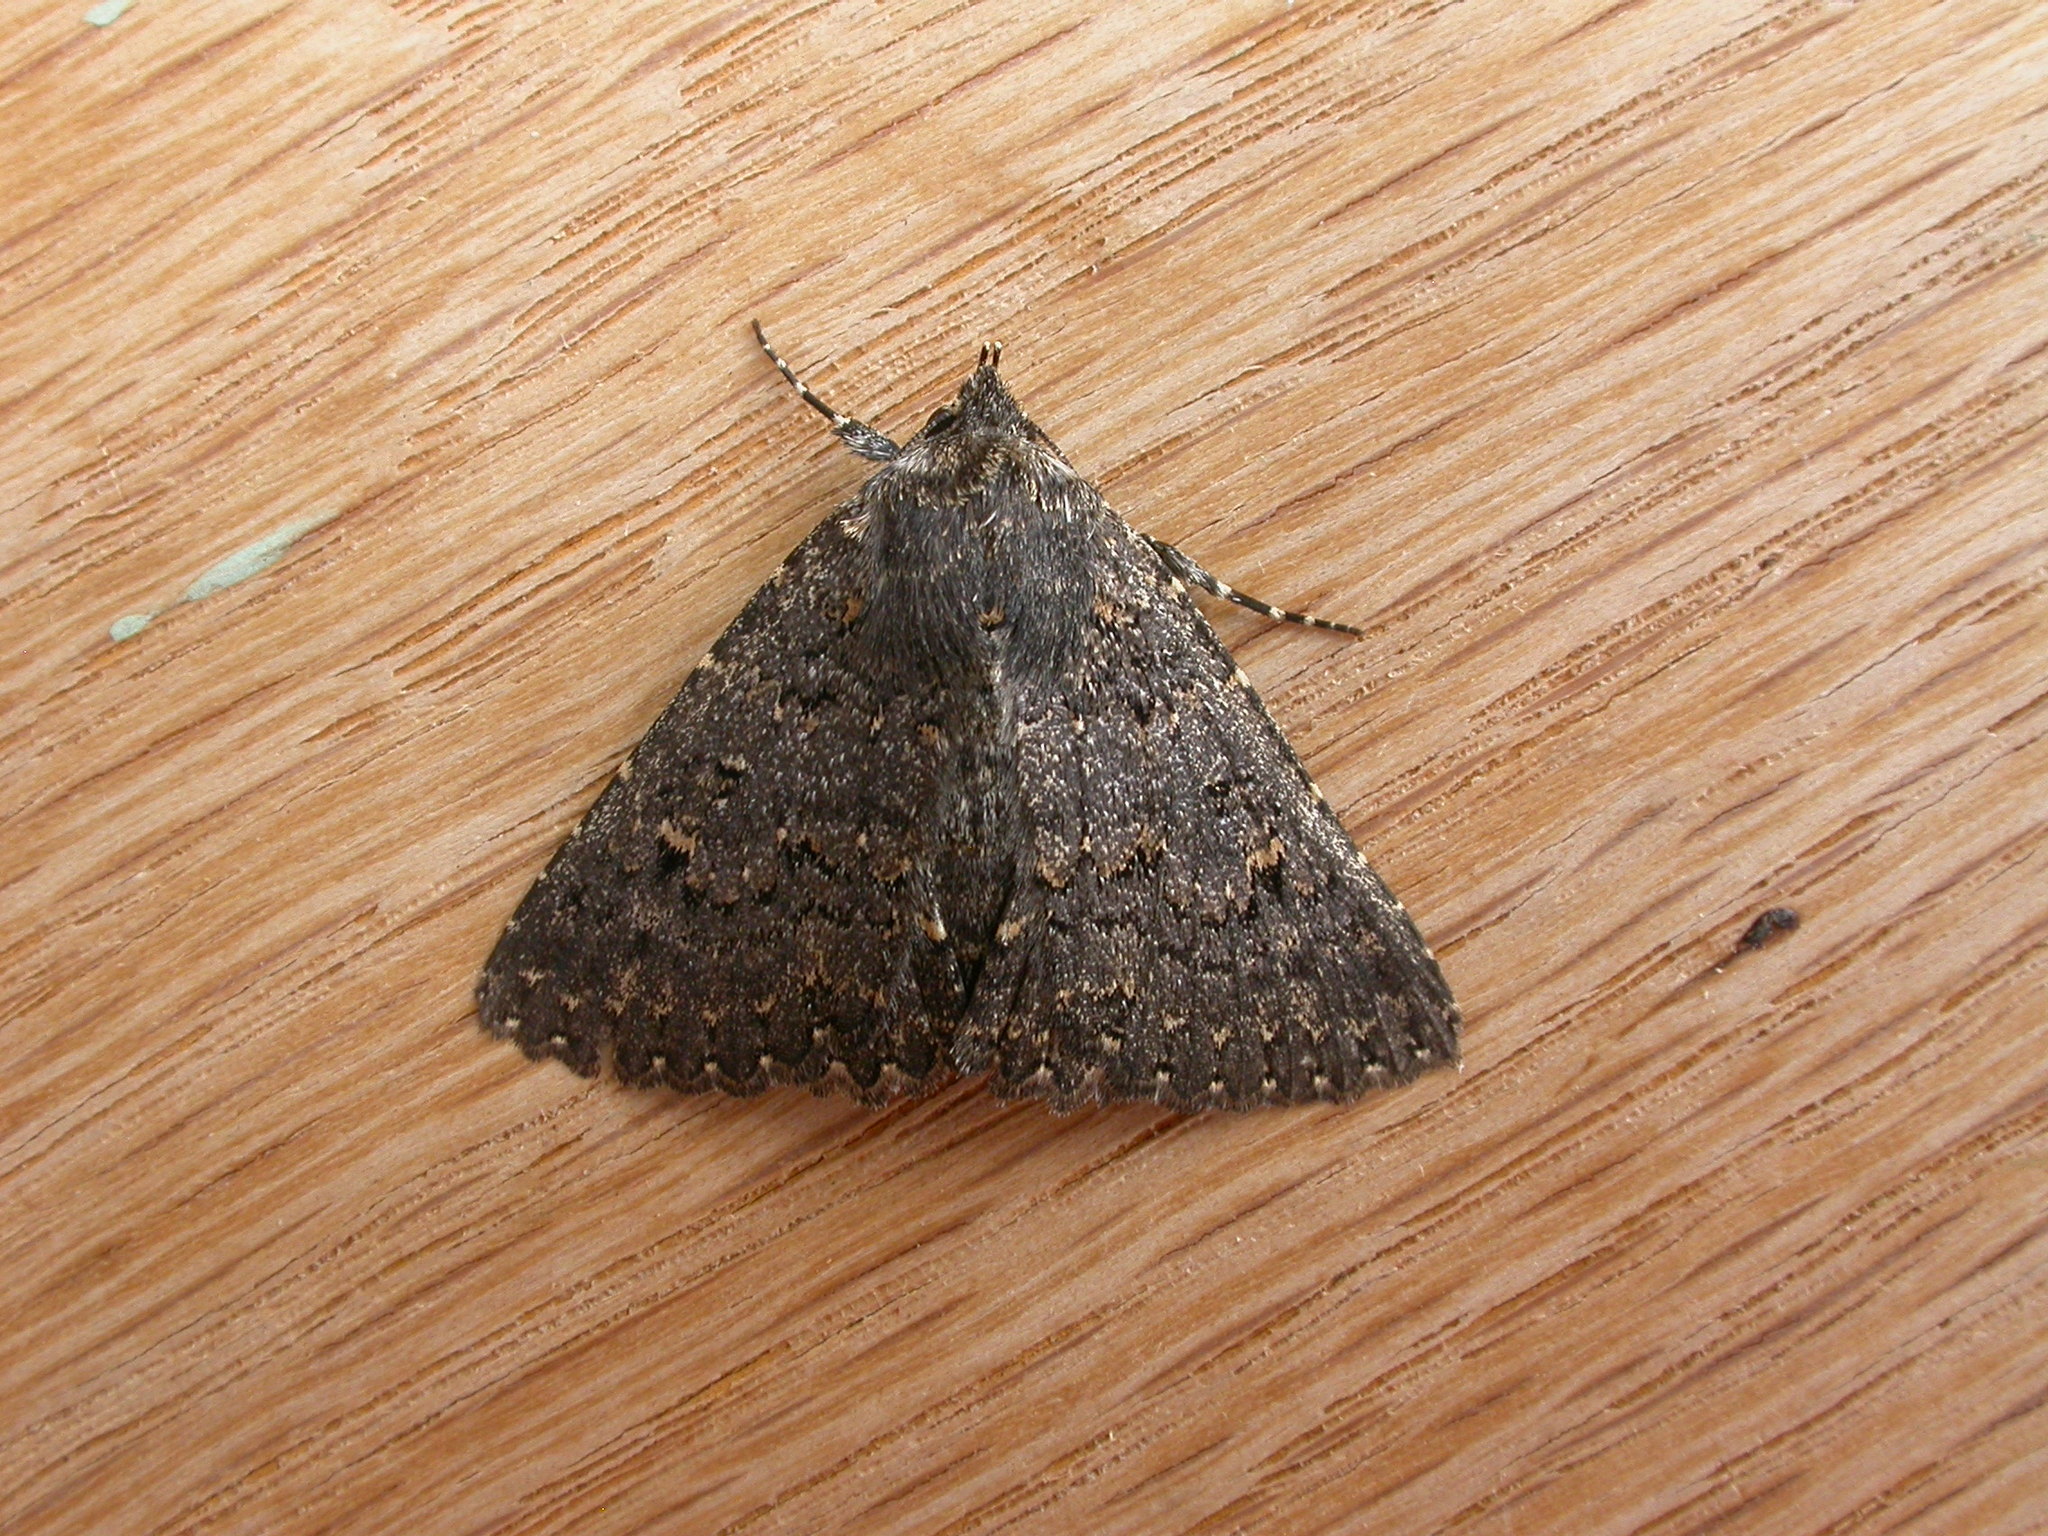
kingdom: Animalia
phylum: Arthropoda
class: Insecta
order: Lepidoptera
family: Erebidae
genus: Praxis
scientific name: Praxis edwardsii
